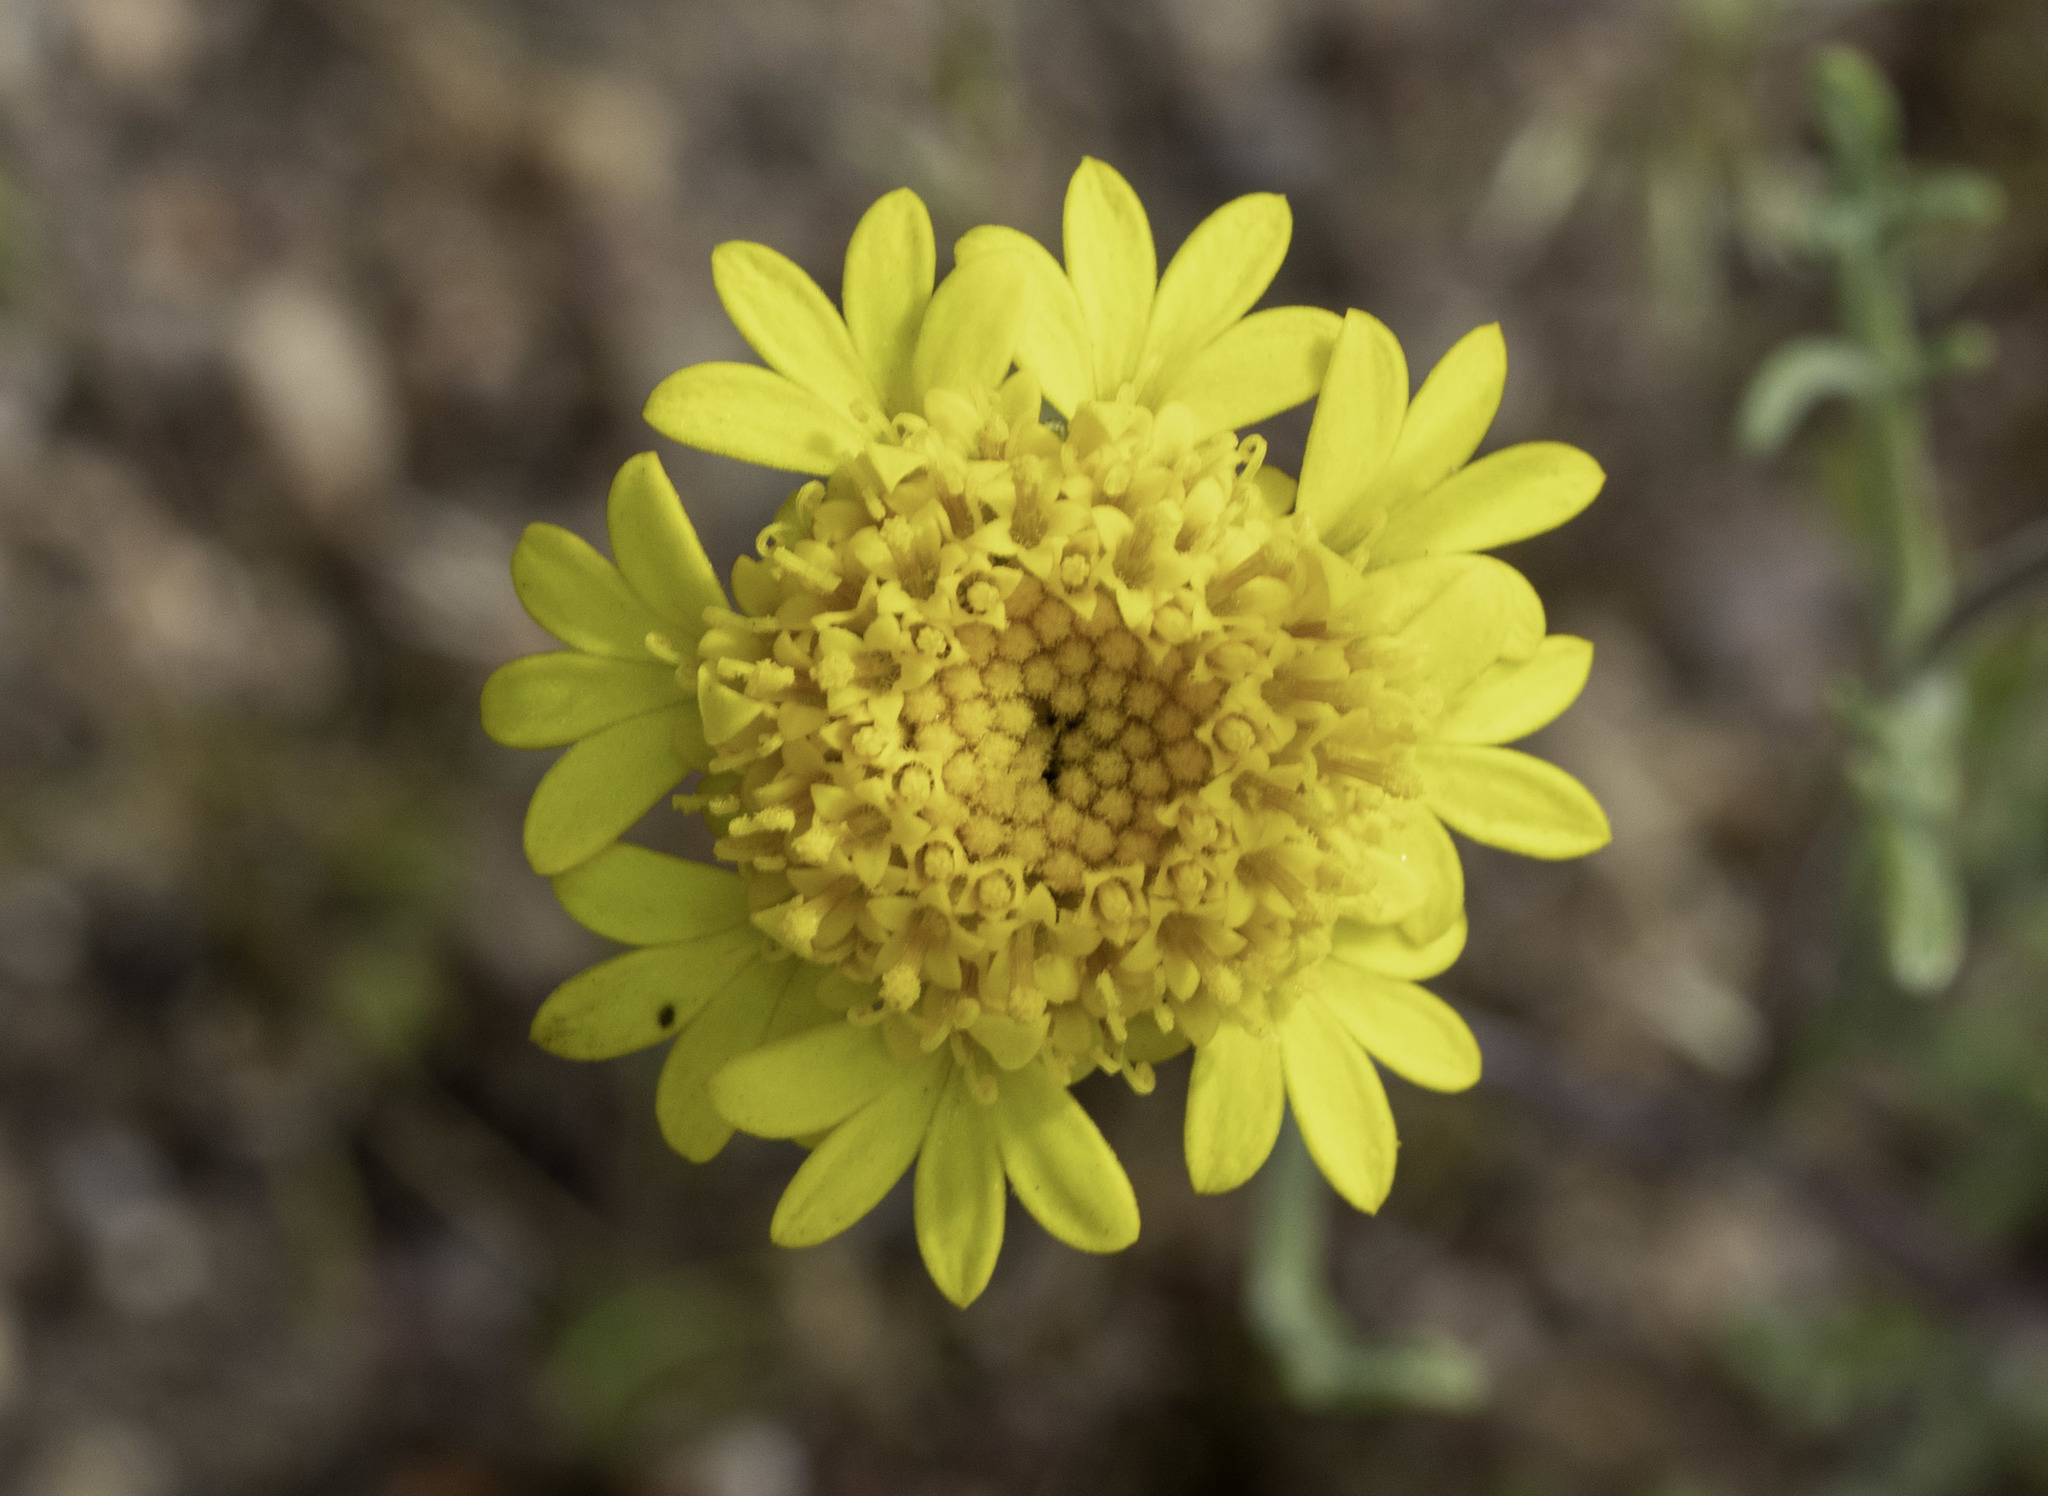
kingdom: Plantae
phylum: Tracheophyta
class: Magnoliopsida
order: Asterales
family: Asteraceae
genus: Chaenactis
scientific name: Chaenactis glabriuscula
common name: Yellow pincushion
